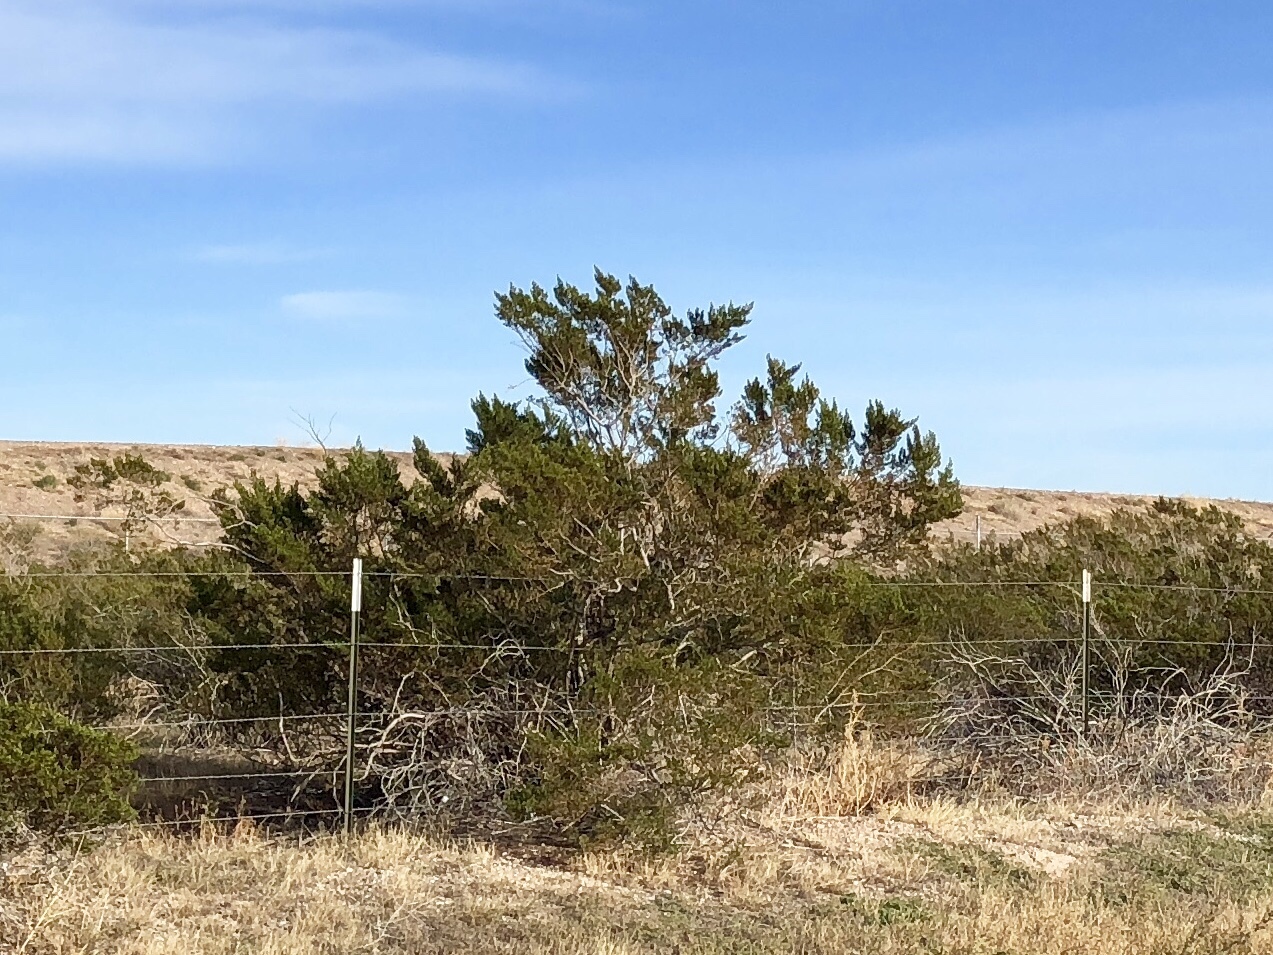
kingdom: Plantae
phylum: Tracheophyta
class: Magnoliopsida
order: Zygophyllales
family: Zygophyllaceae
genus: Larrea
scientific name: Larrea tridentata
